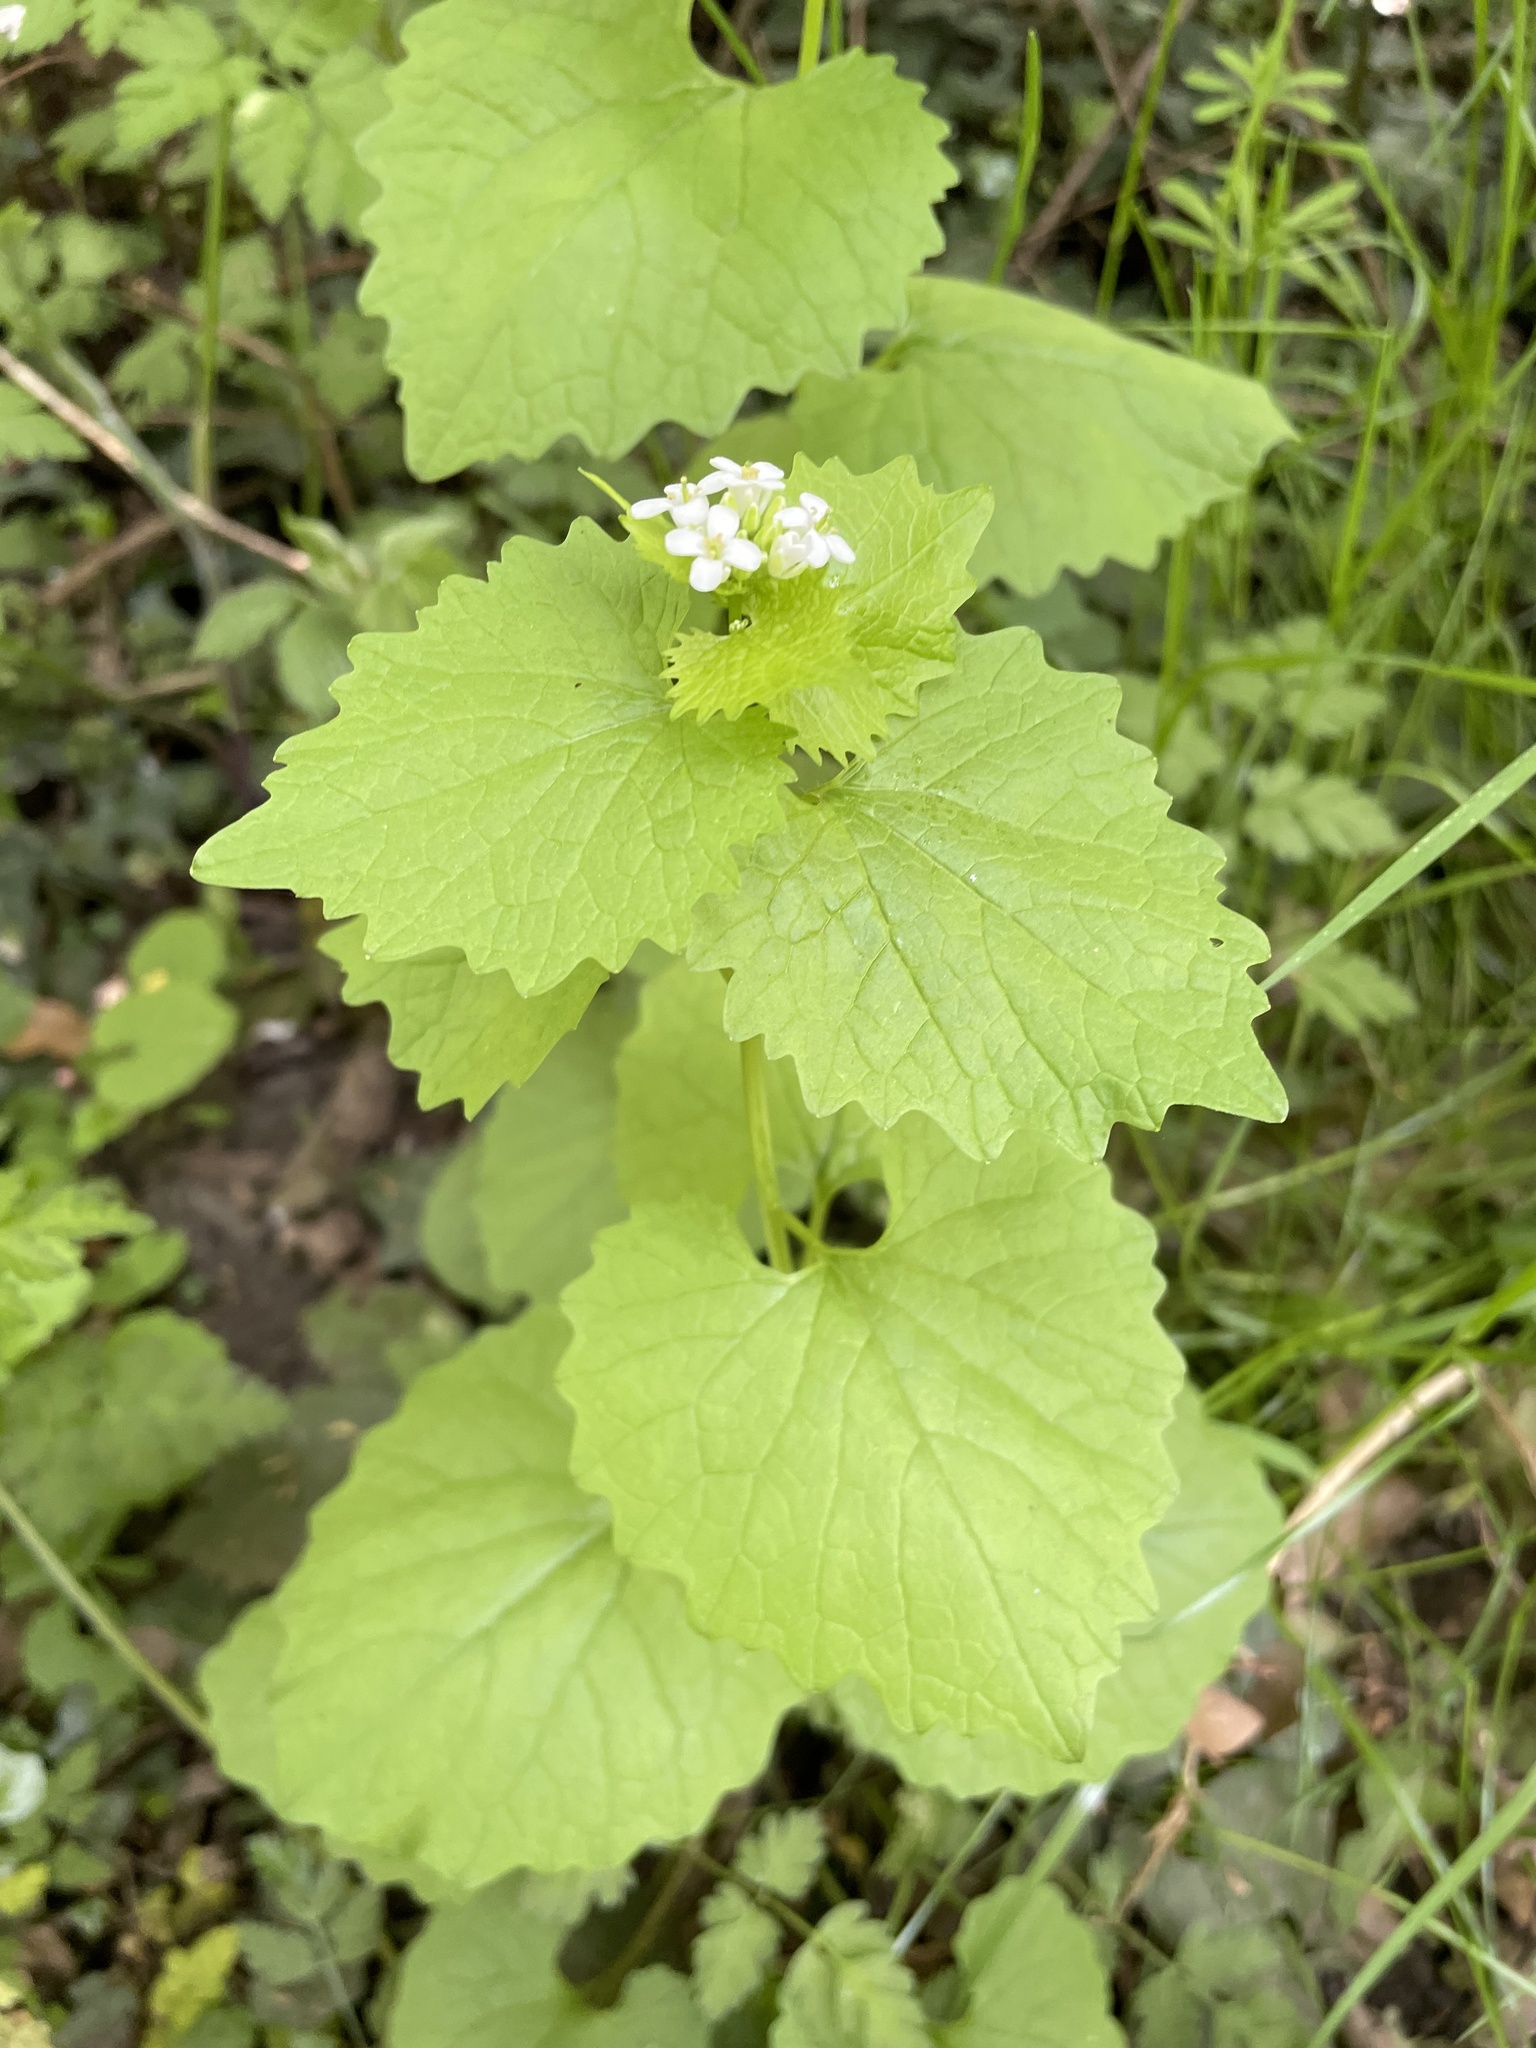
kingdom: Plantae
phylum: Tracheophyta
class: Magnoliopsida
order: Brassicales
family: Brassicaceae
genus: Alliaria
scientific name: Alliaria petiolata
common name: Garlic mustard
